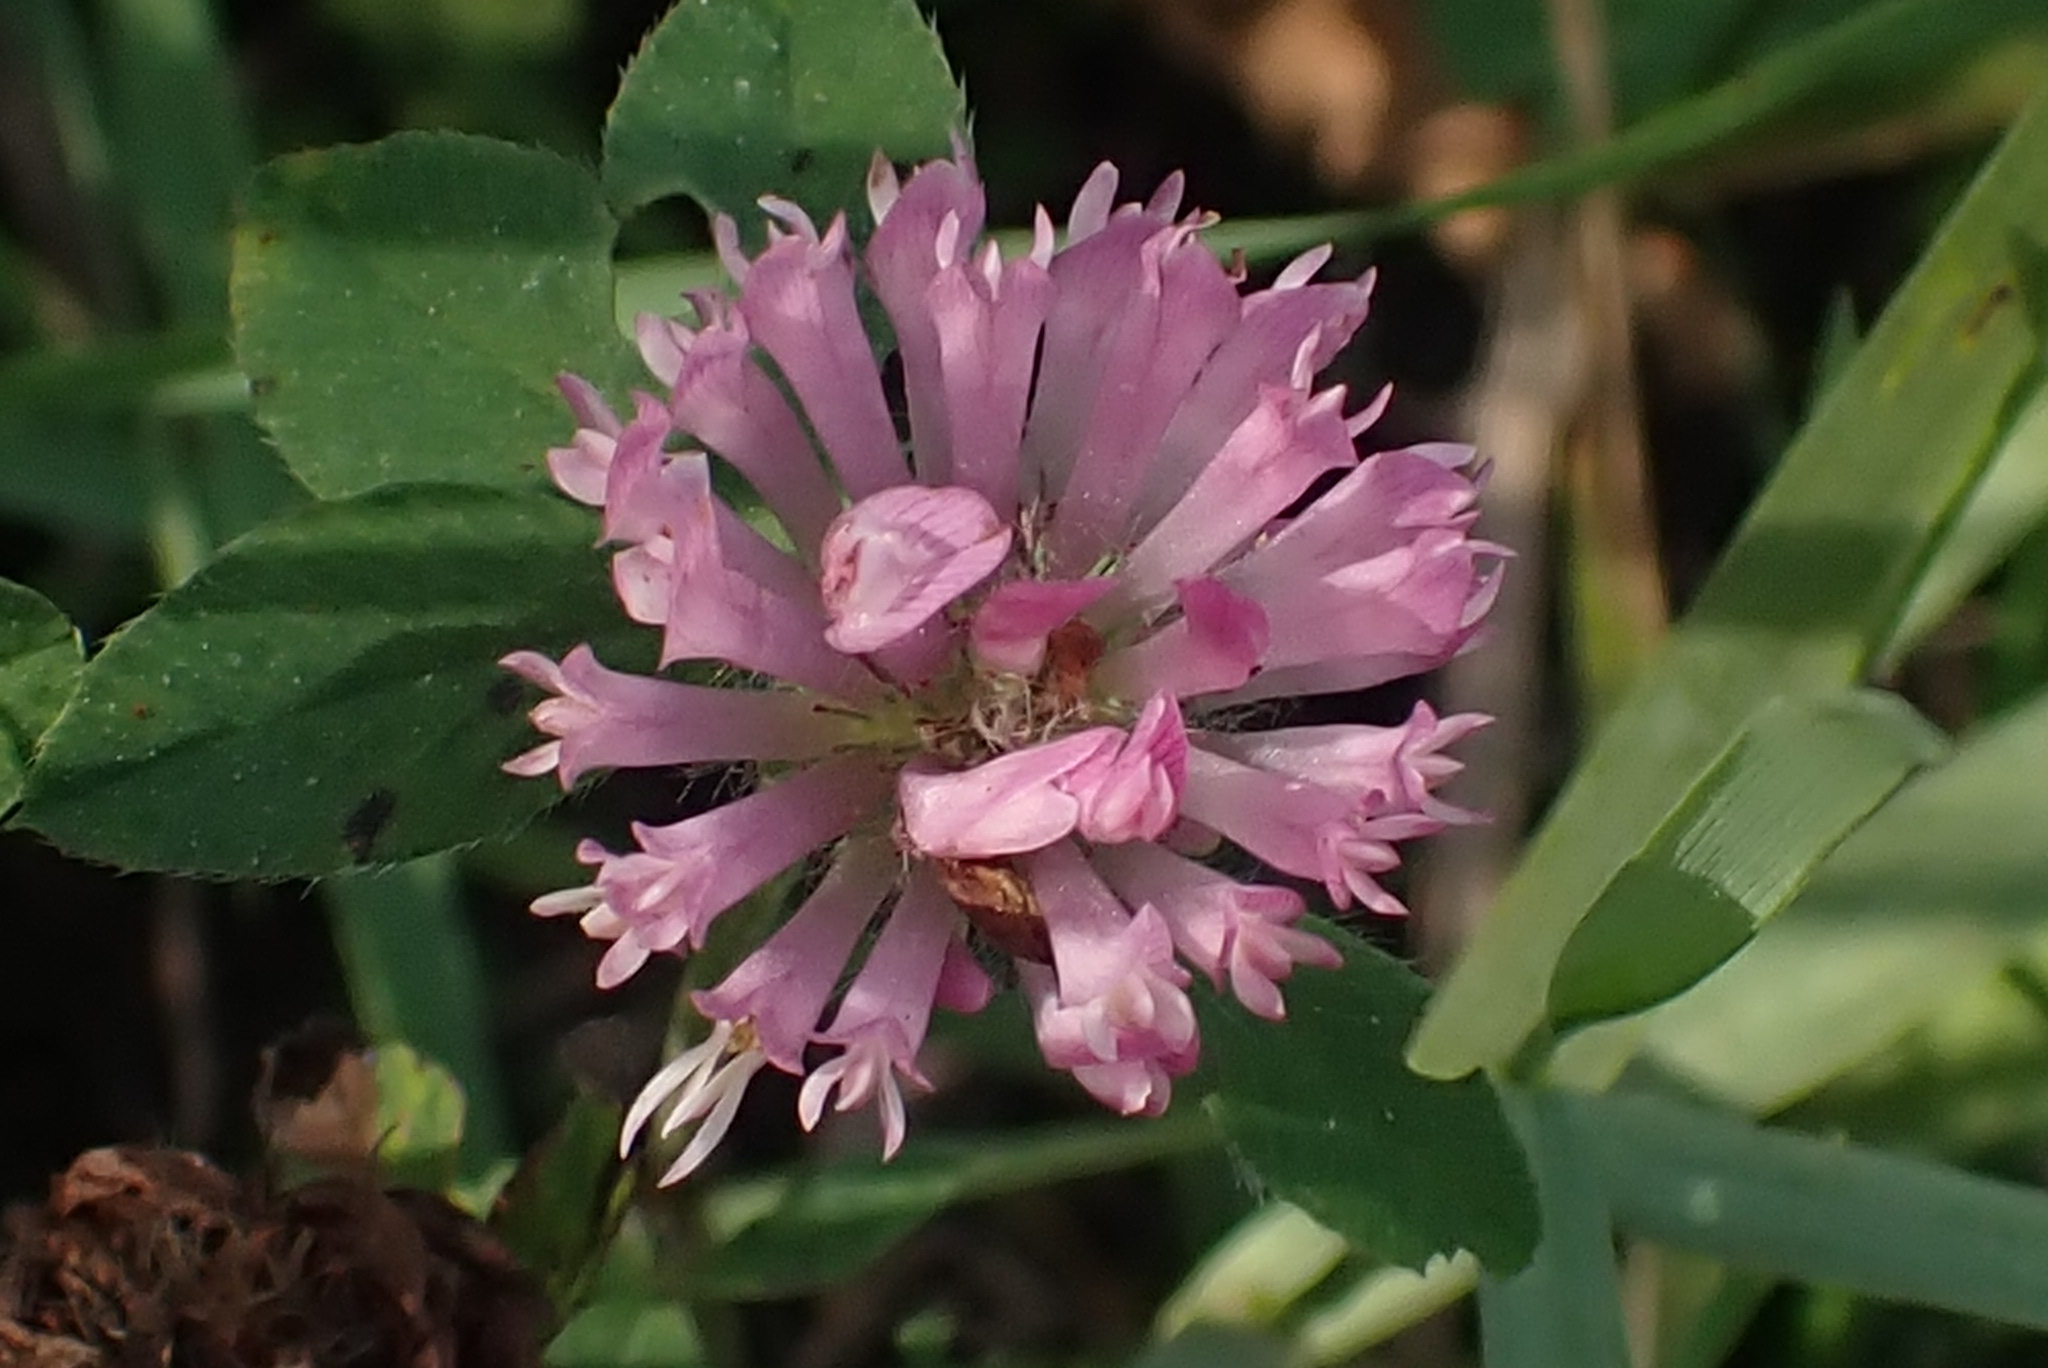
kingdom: Plantae
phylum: Tracheophyta
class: Magnoliopsida
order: Fabales
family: Fabaceae
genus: Trifolium
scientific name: Trifolium pratense
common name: Red clover
